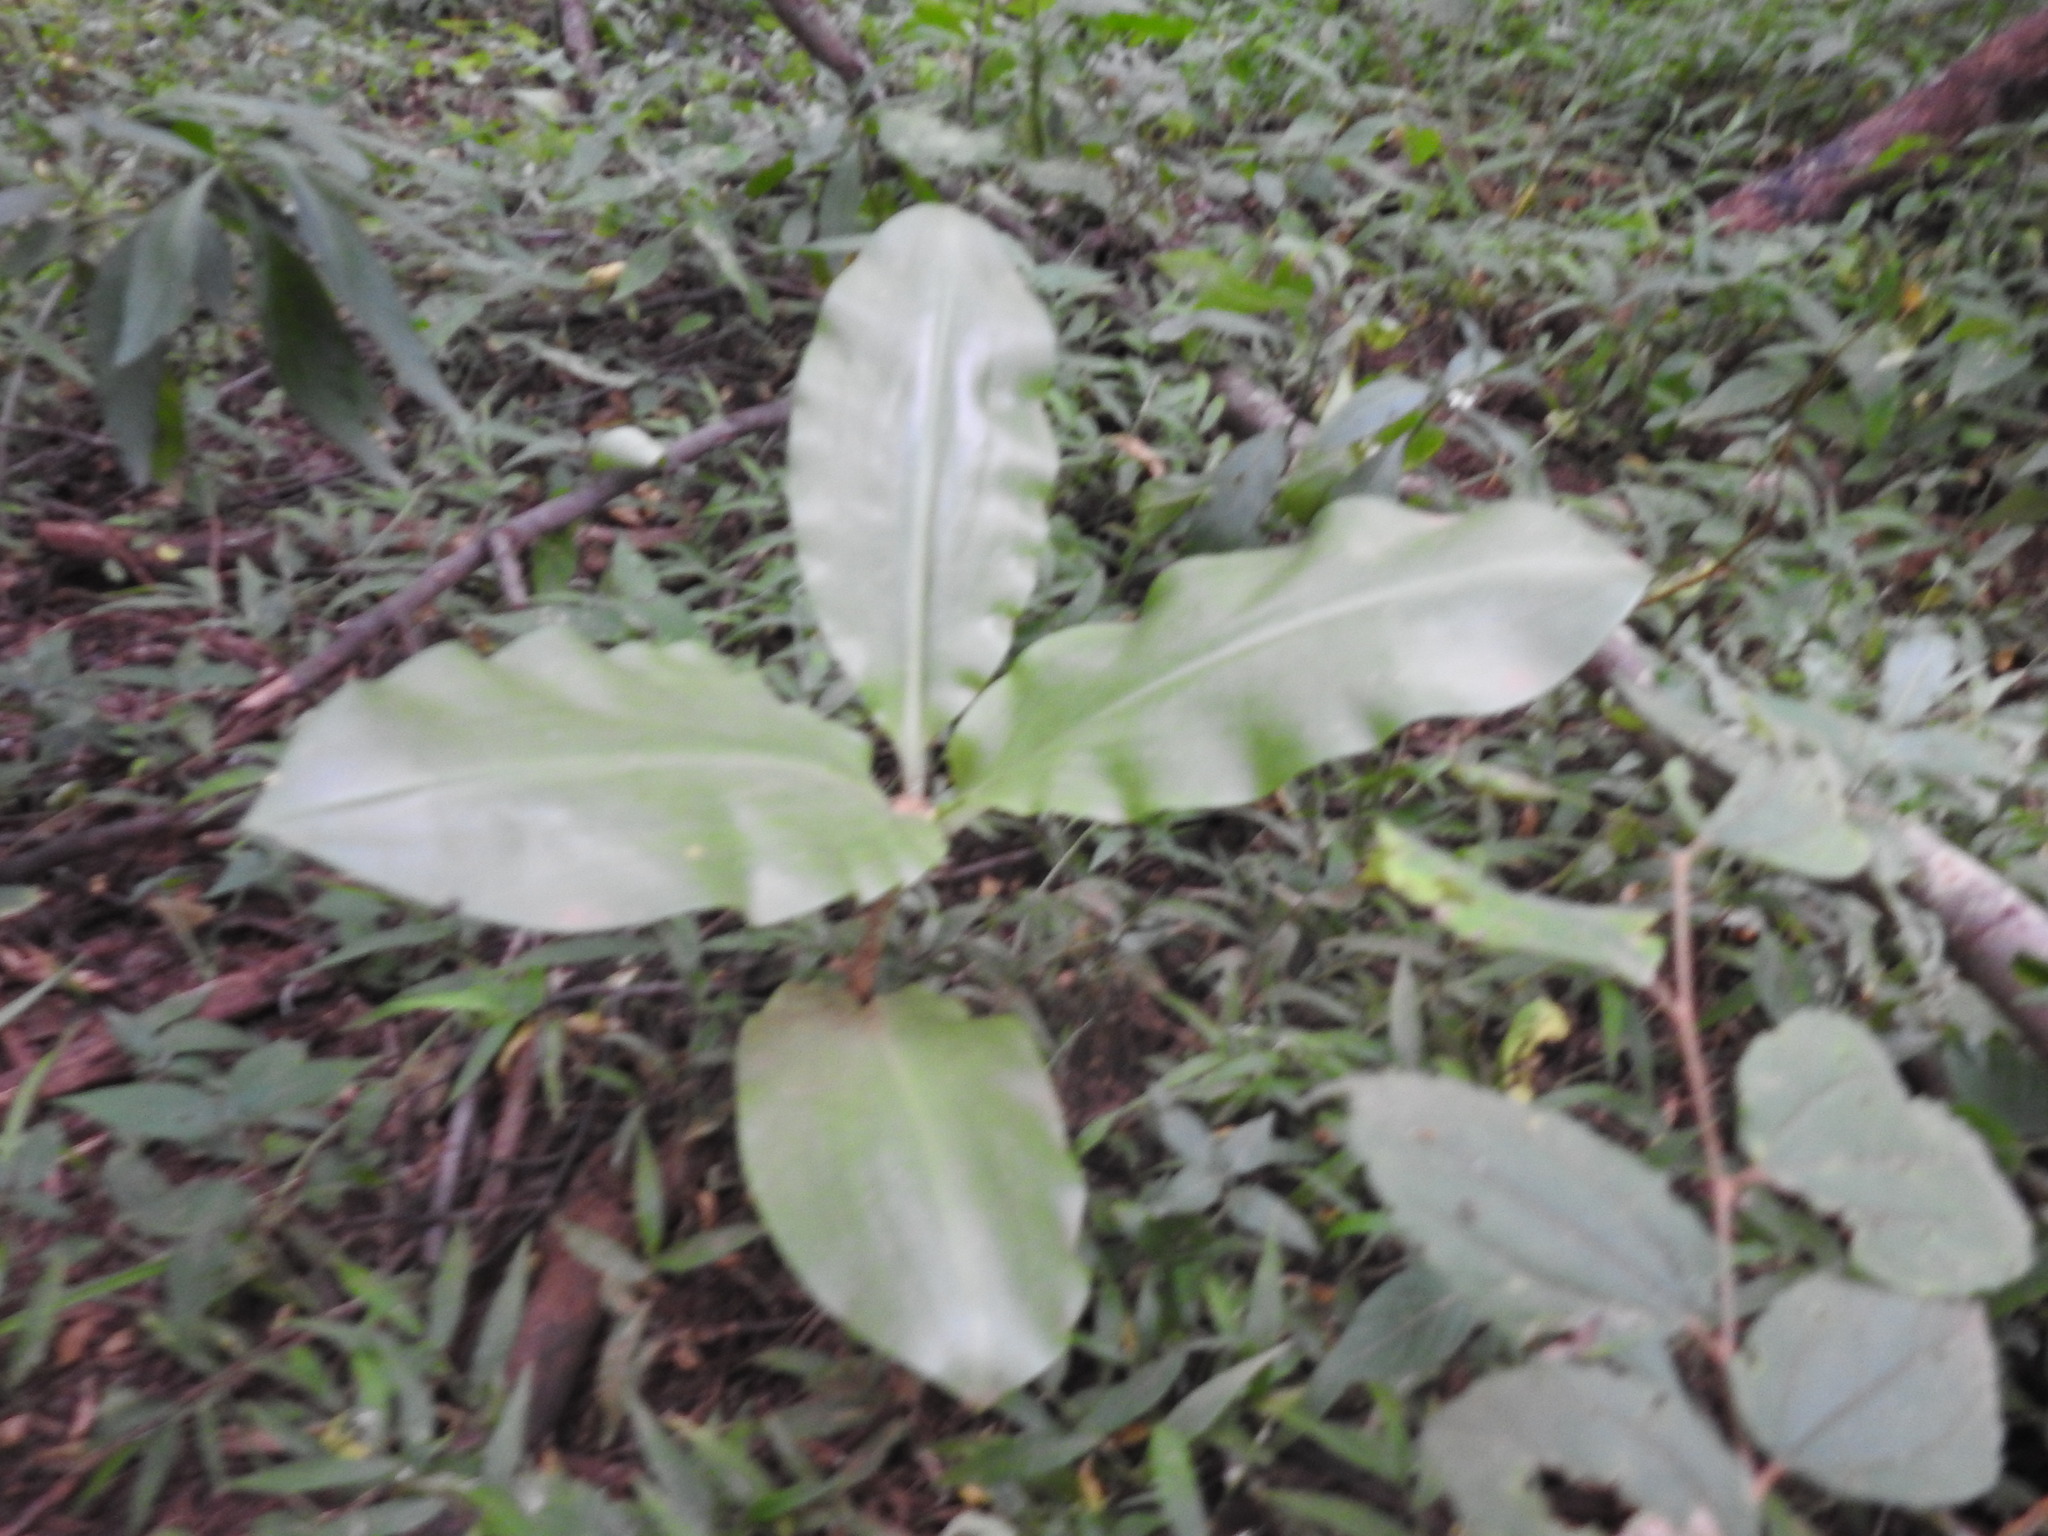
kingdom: Plantae
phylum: Tracheophyta
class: Liliopsida
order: Asparagales
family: Amaryllidaceae
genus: Scadoxus
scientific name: Scadoxus puniceus
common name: Royal-paintbrush
